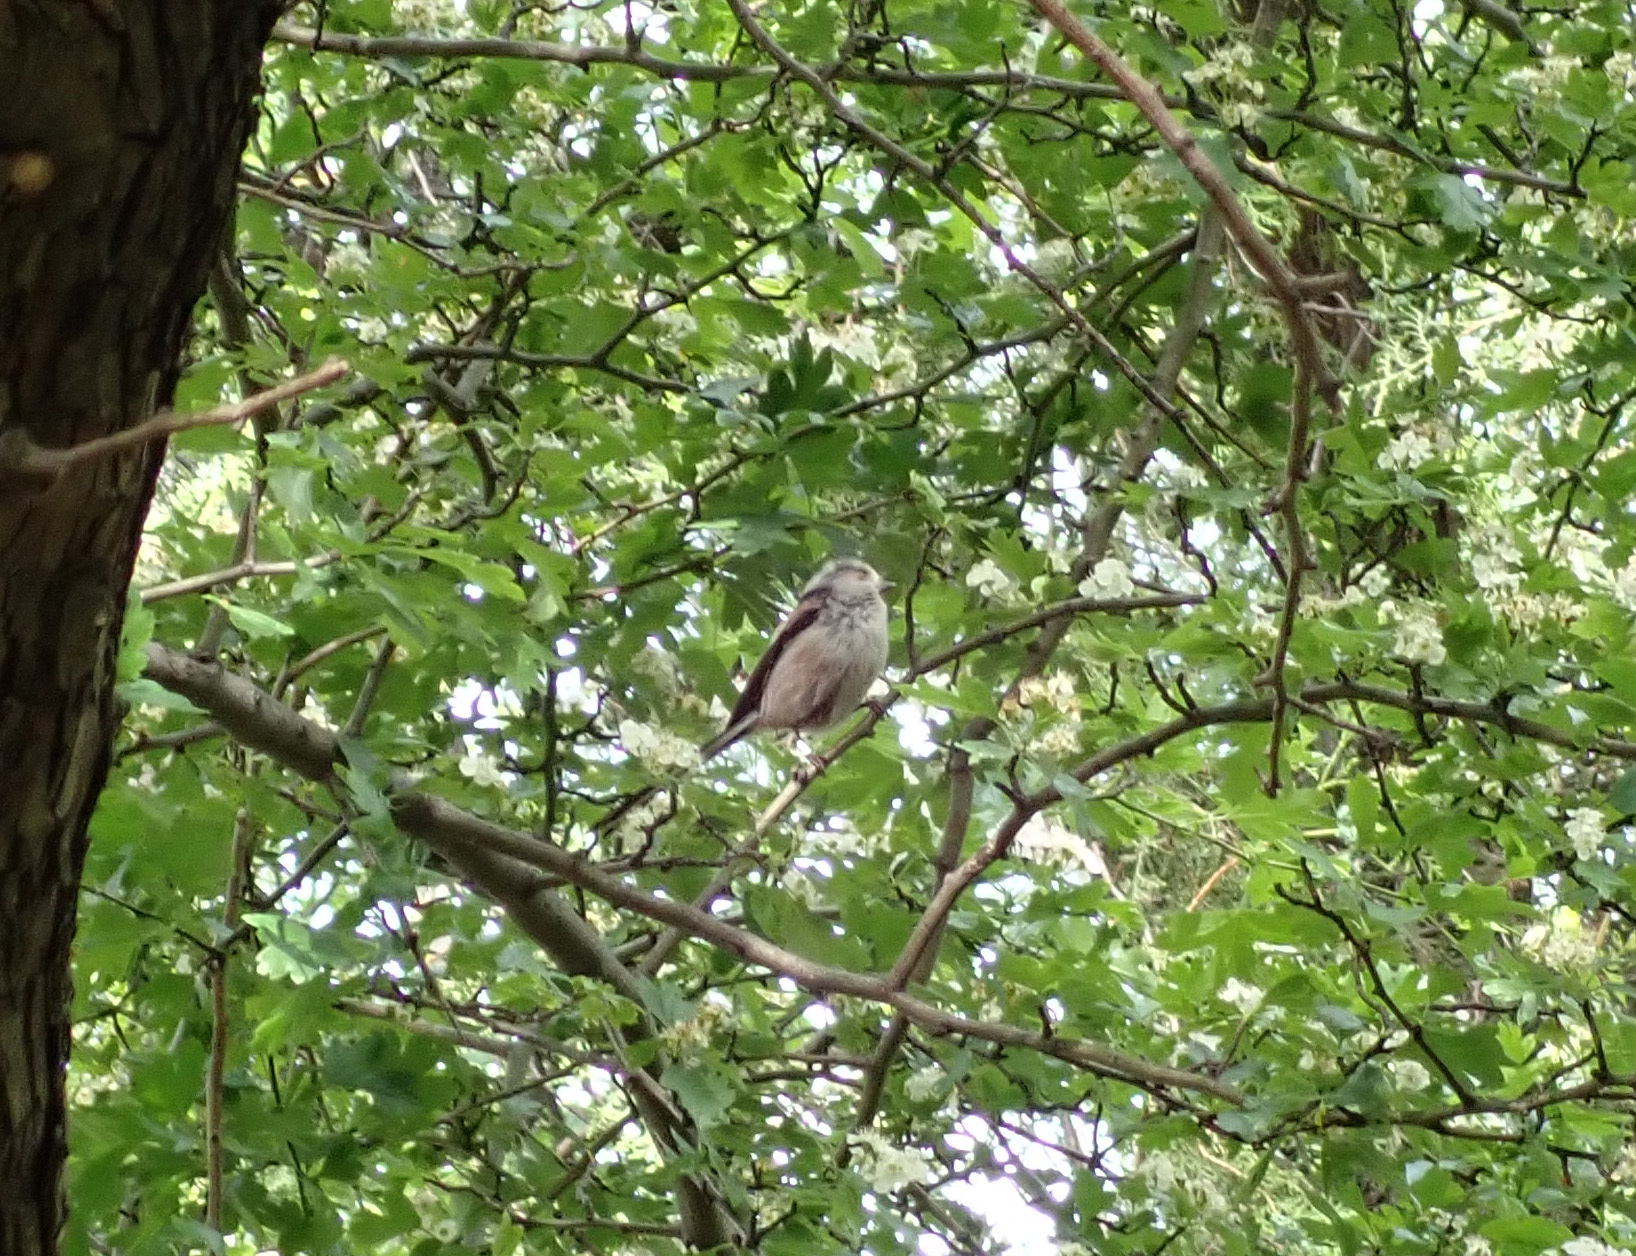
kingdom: Animalia
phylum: Chordata
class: Aves
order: Passeriformes
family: Aegithalidae
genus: Aegithalos
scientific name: Aegithalos caudatus
